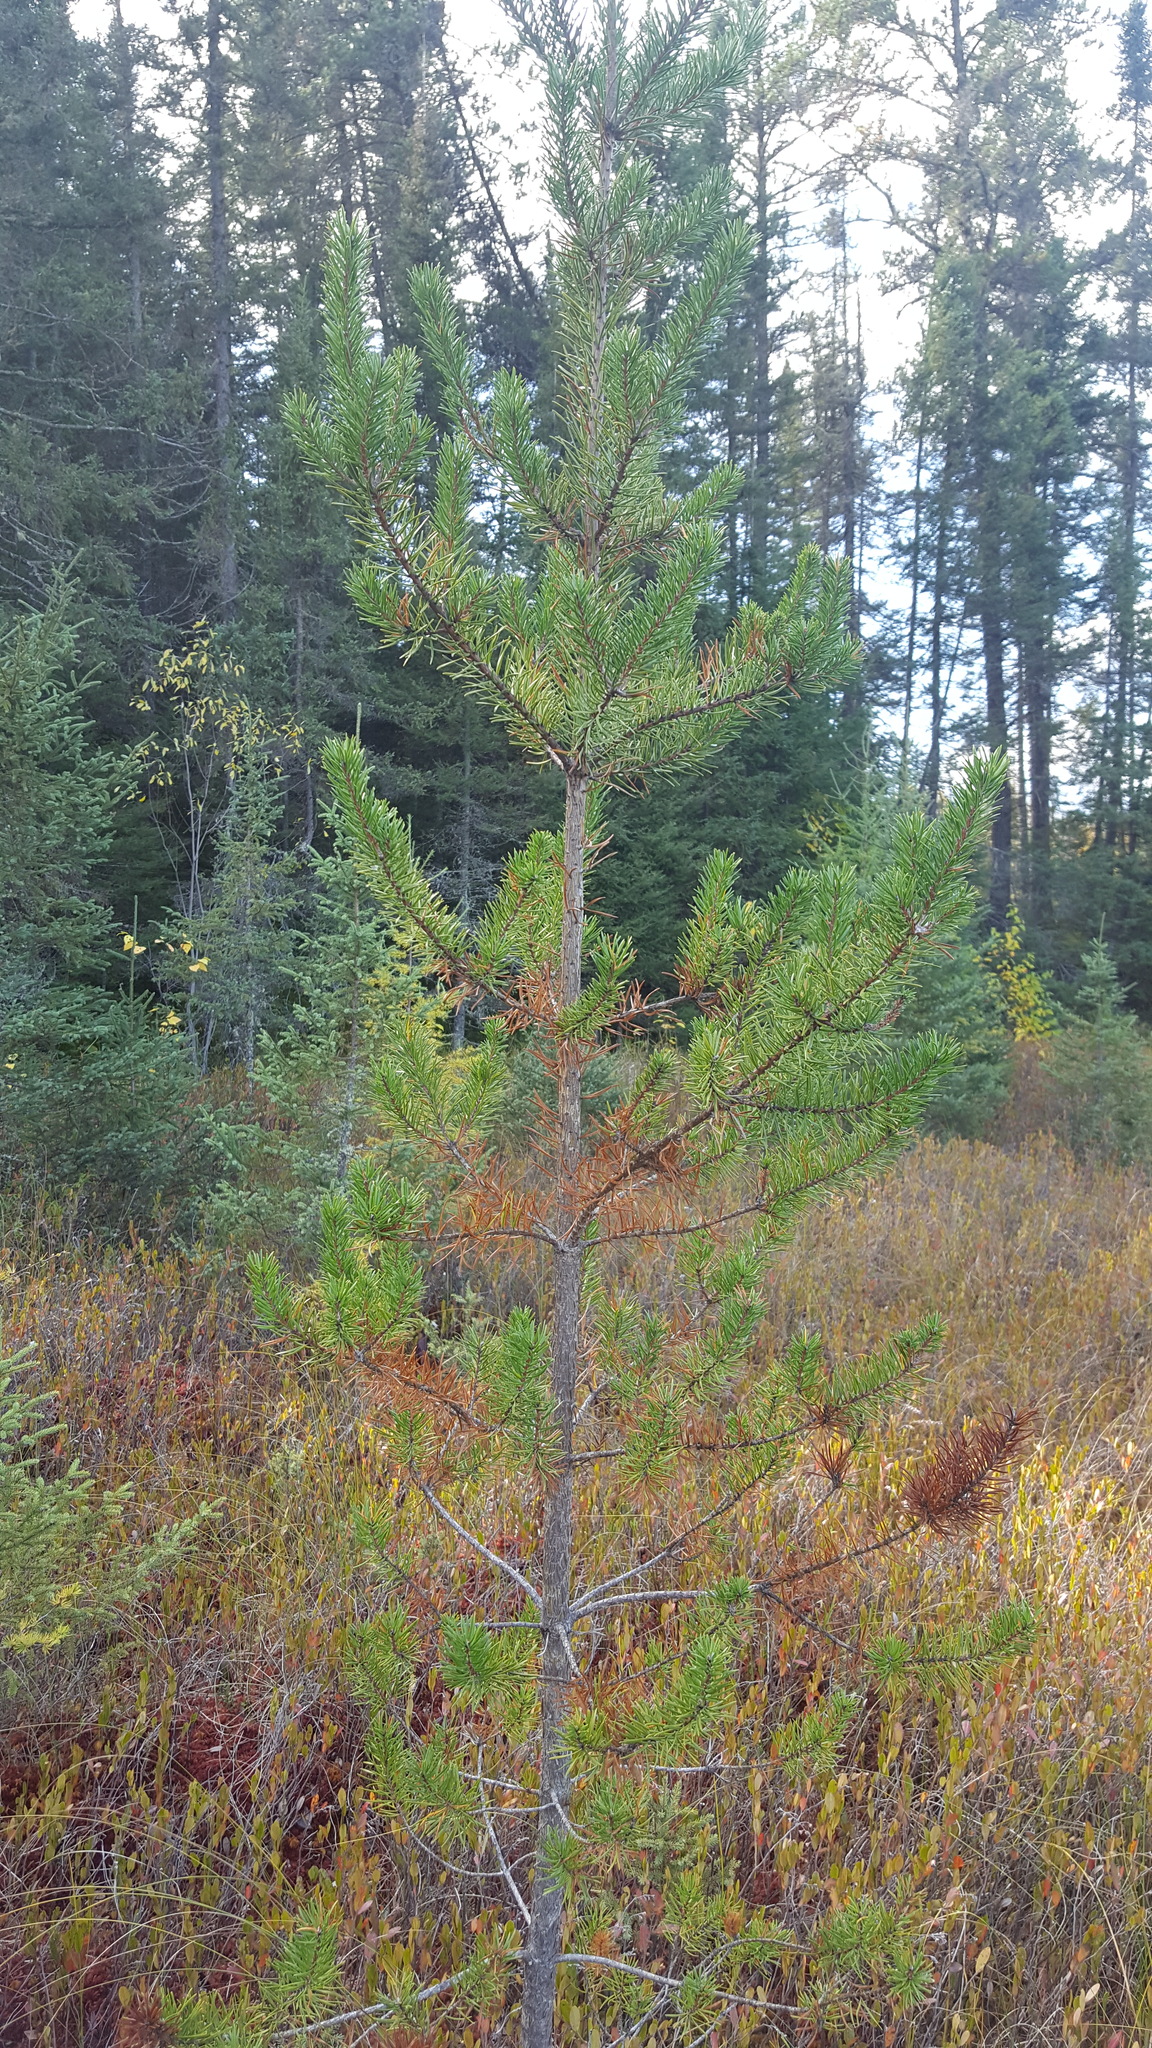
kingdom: Plantae
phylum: Tracheophyta
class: Pinopsida
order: Pinales
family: Pinaceae
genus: Pinus
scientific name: Pinus banksiana
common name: Jack pine
